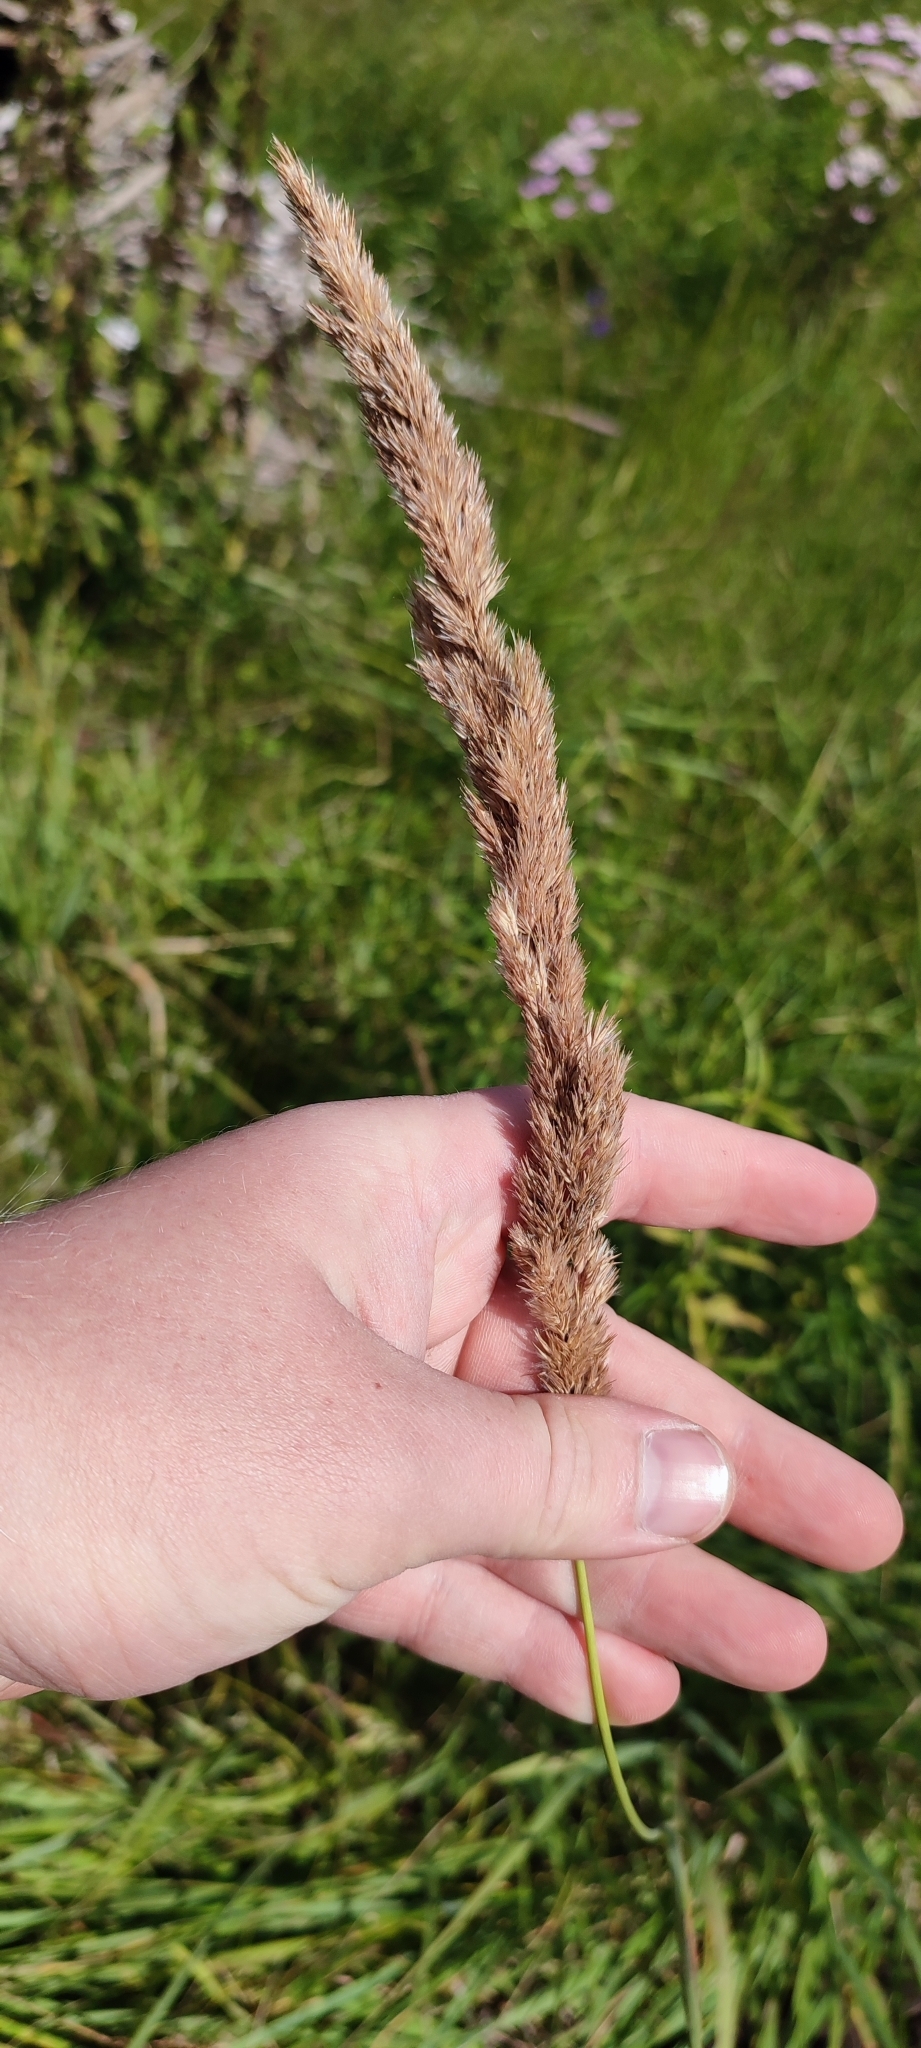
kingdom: Plantae
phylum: Tracheophyta
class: Liliopsida
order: Poales
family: Poaceae
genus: Calamagrostis
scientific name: Calamagrostis epigejos
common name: Wood small-reed
